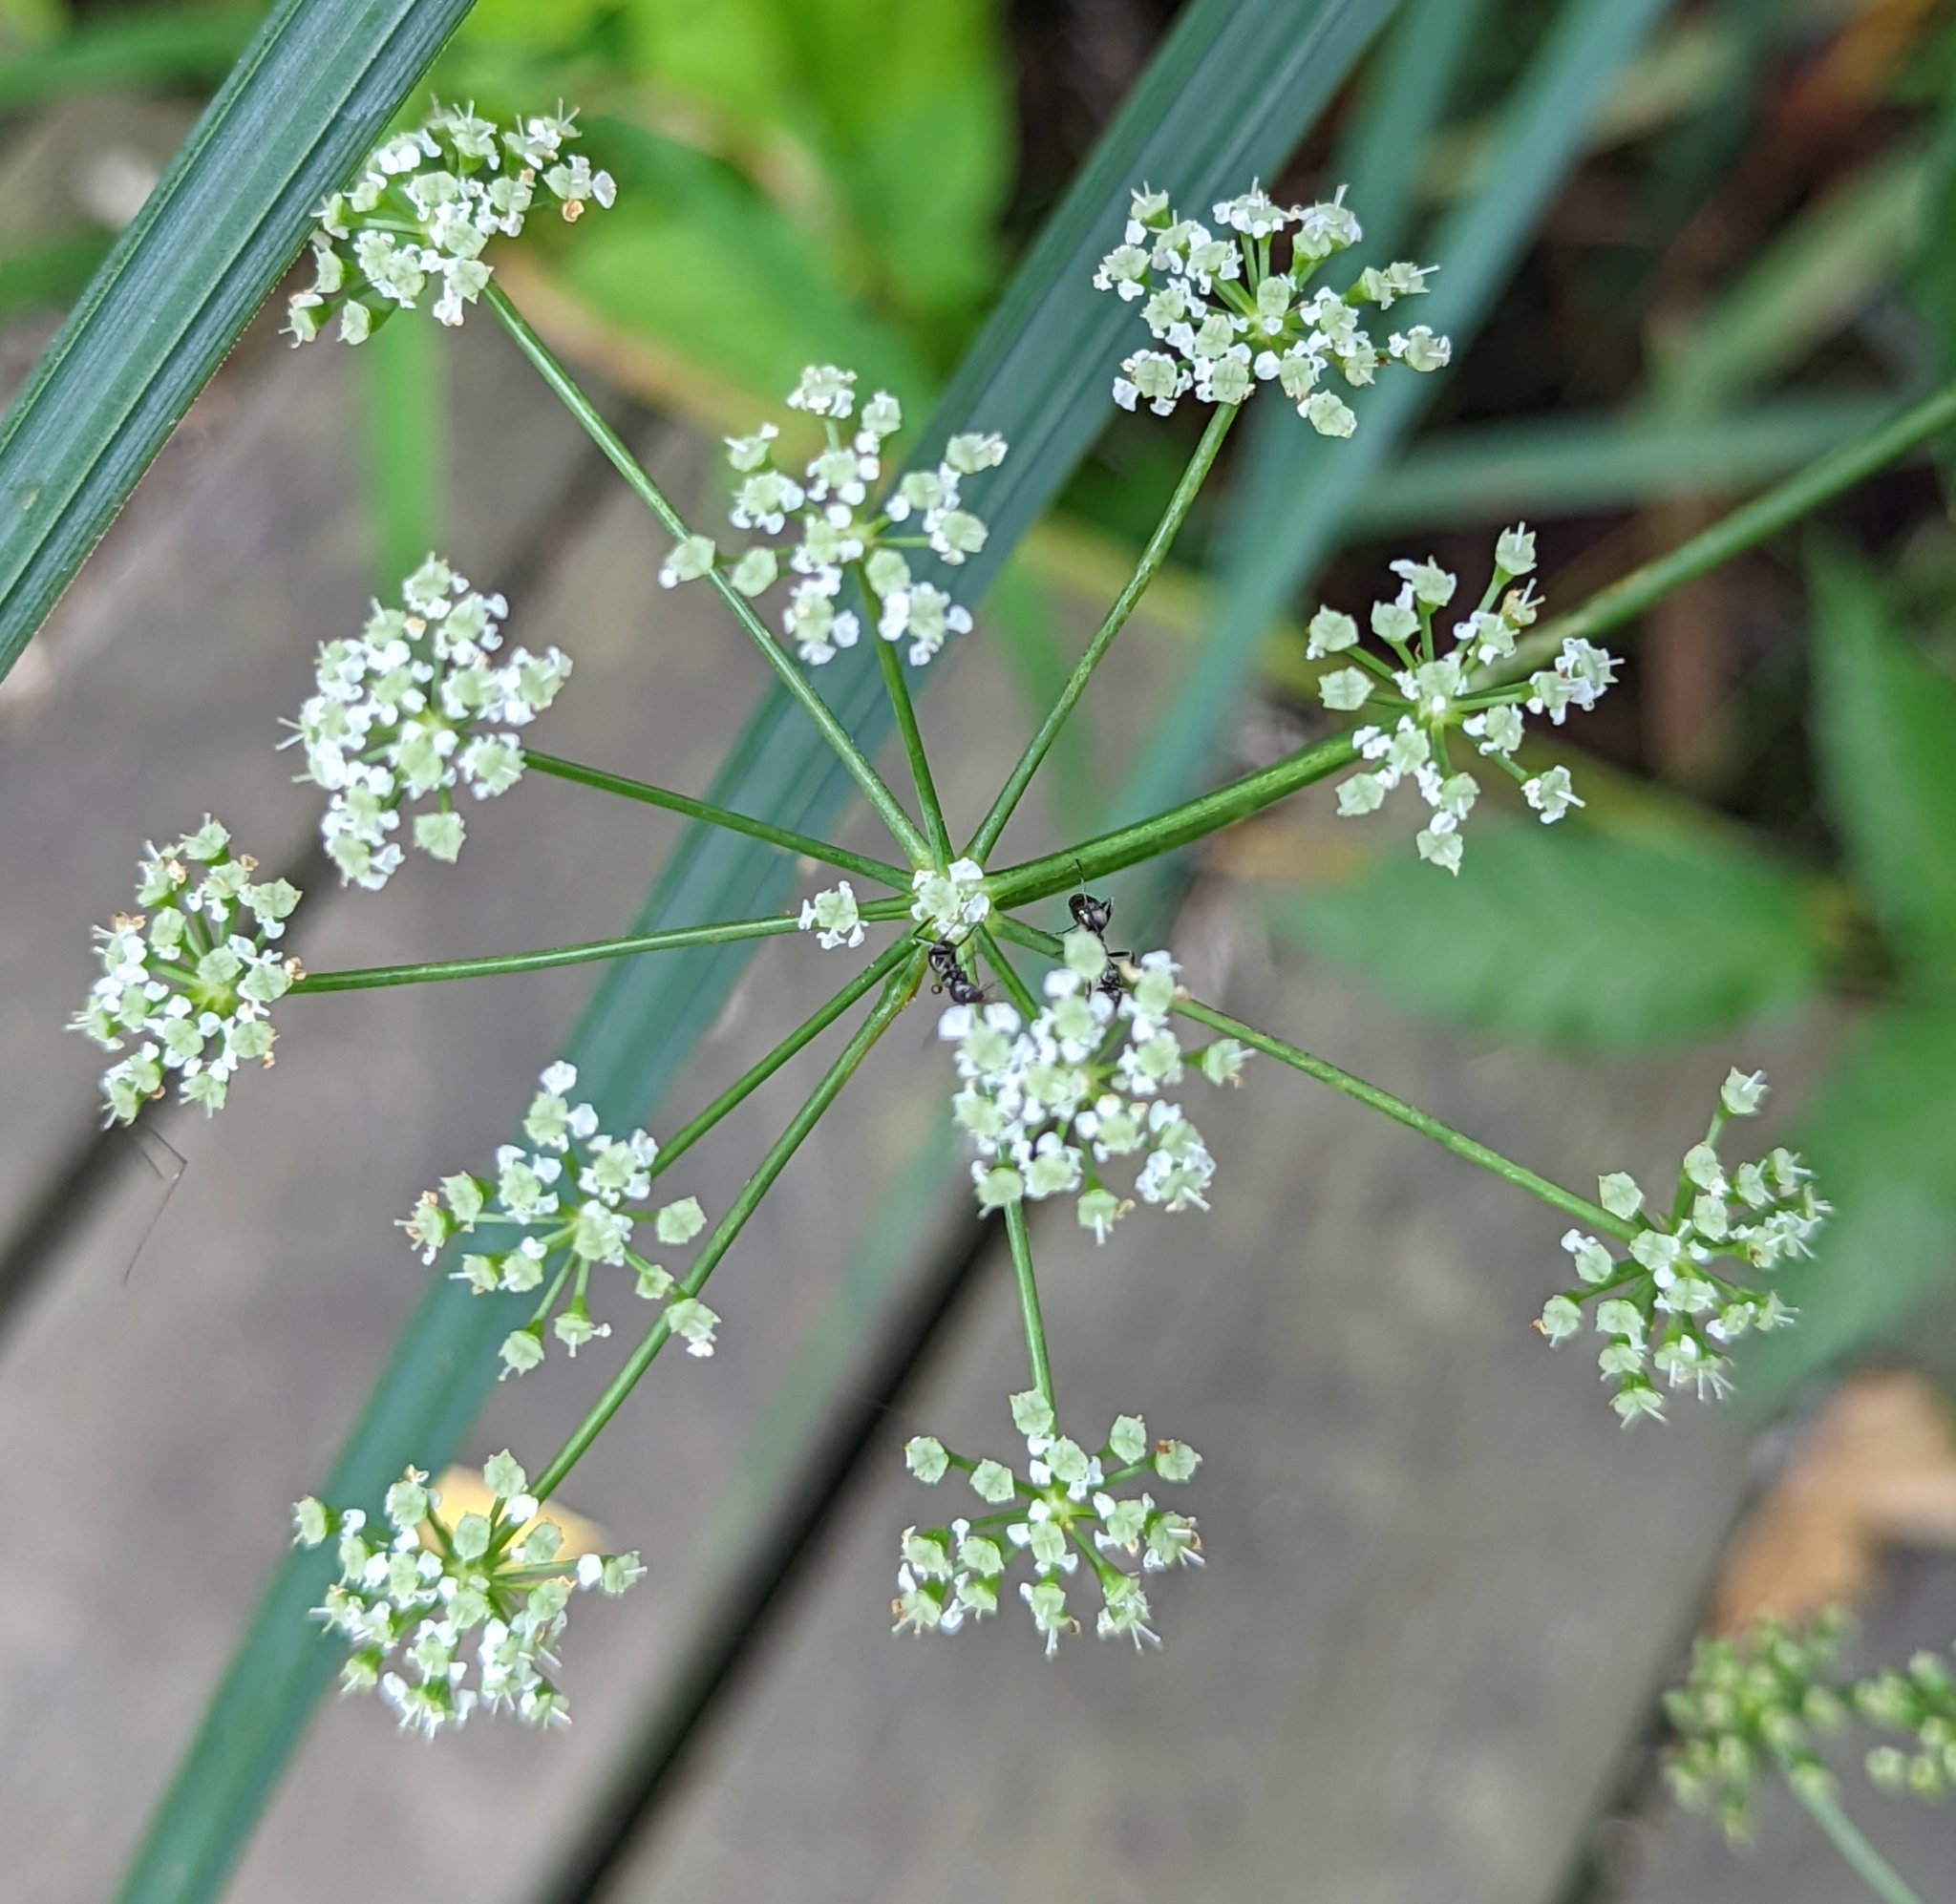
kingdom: Plantae
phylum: Tracheophyta
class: Magnoliopsida
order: Apiales
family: Apiaceae
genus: Cicuta
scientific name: Cicuta maculata
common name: Spotted cowbane
